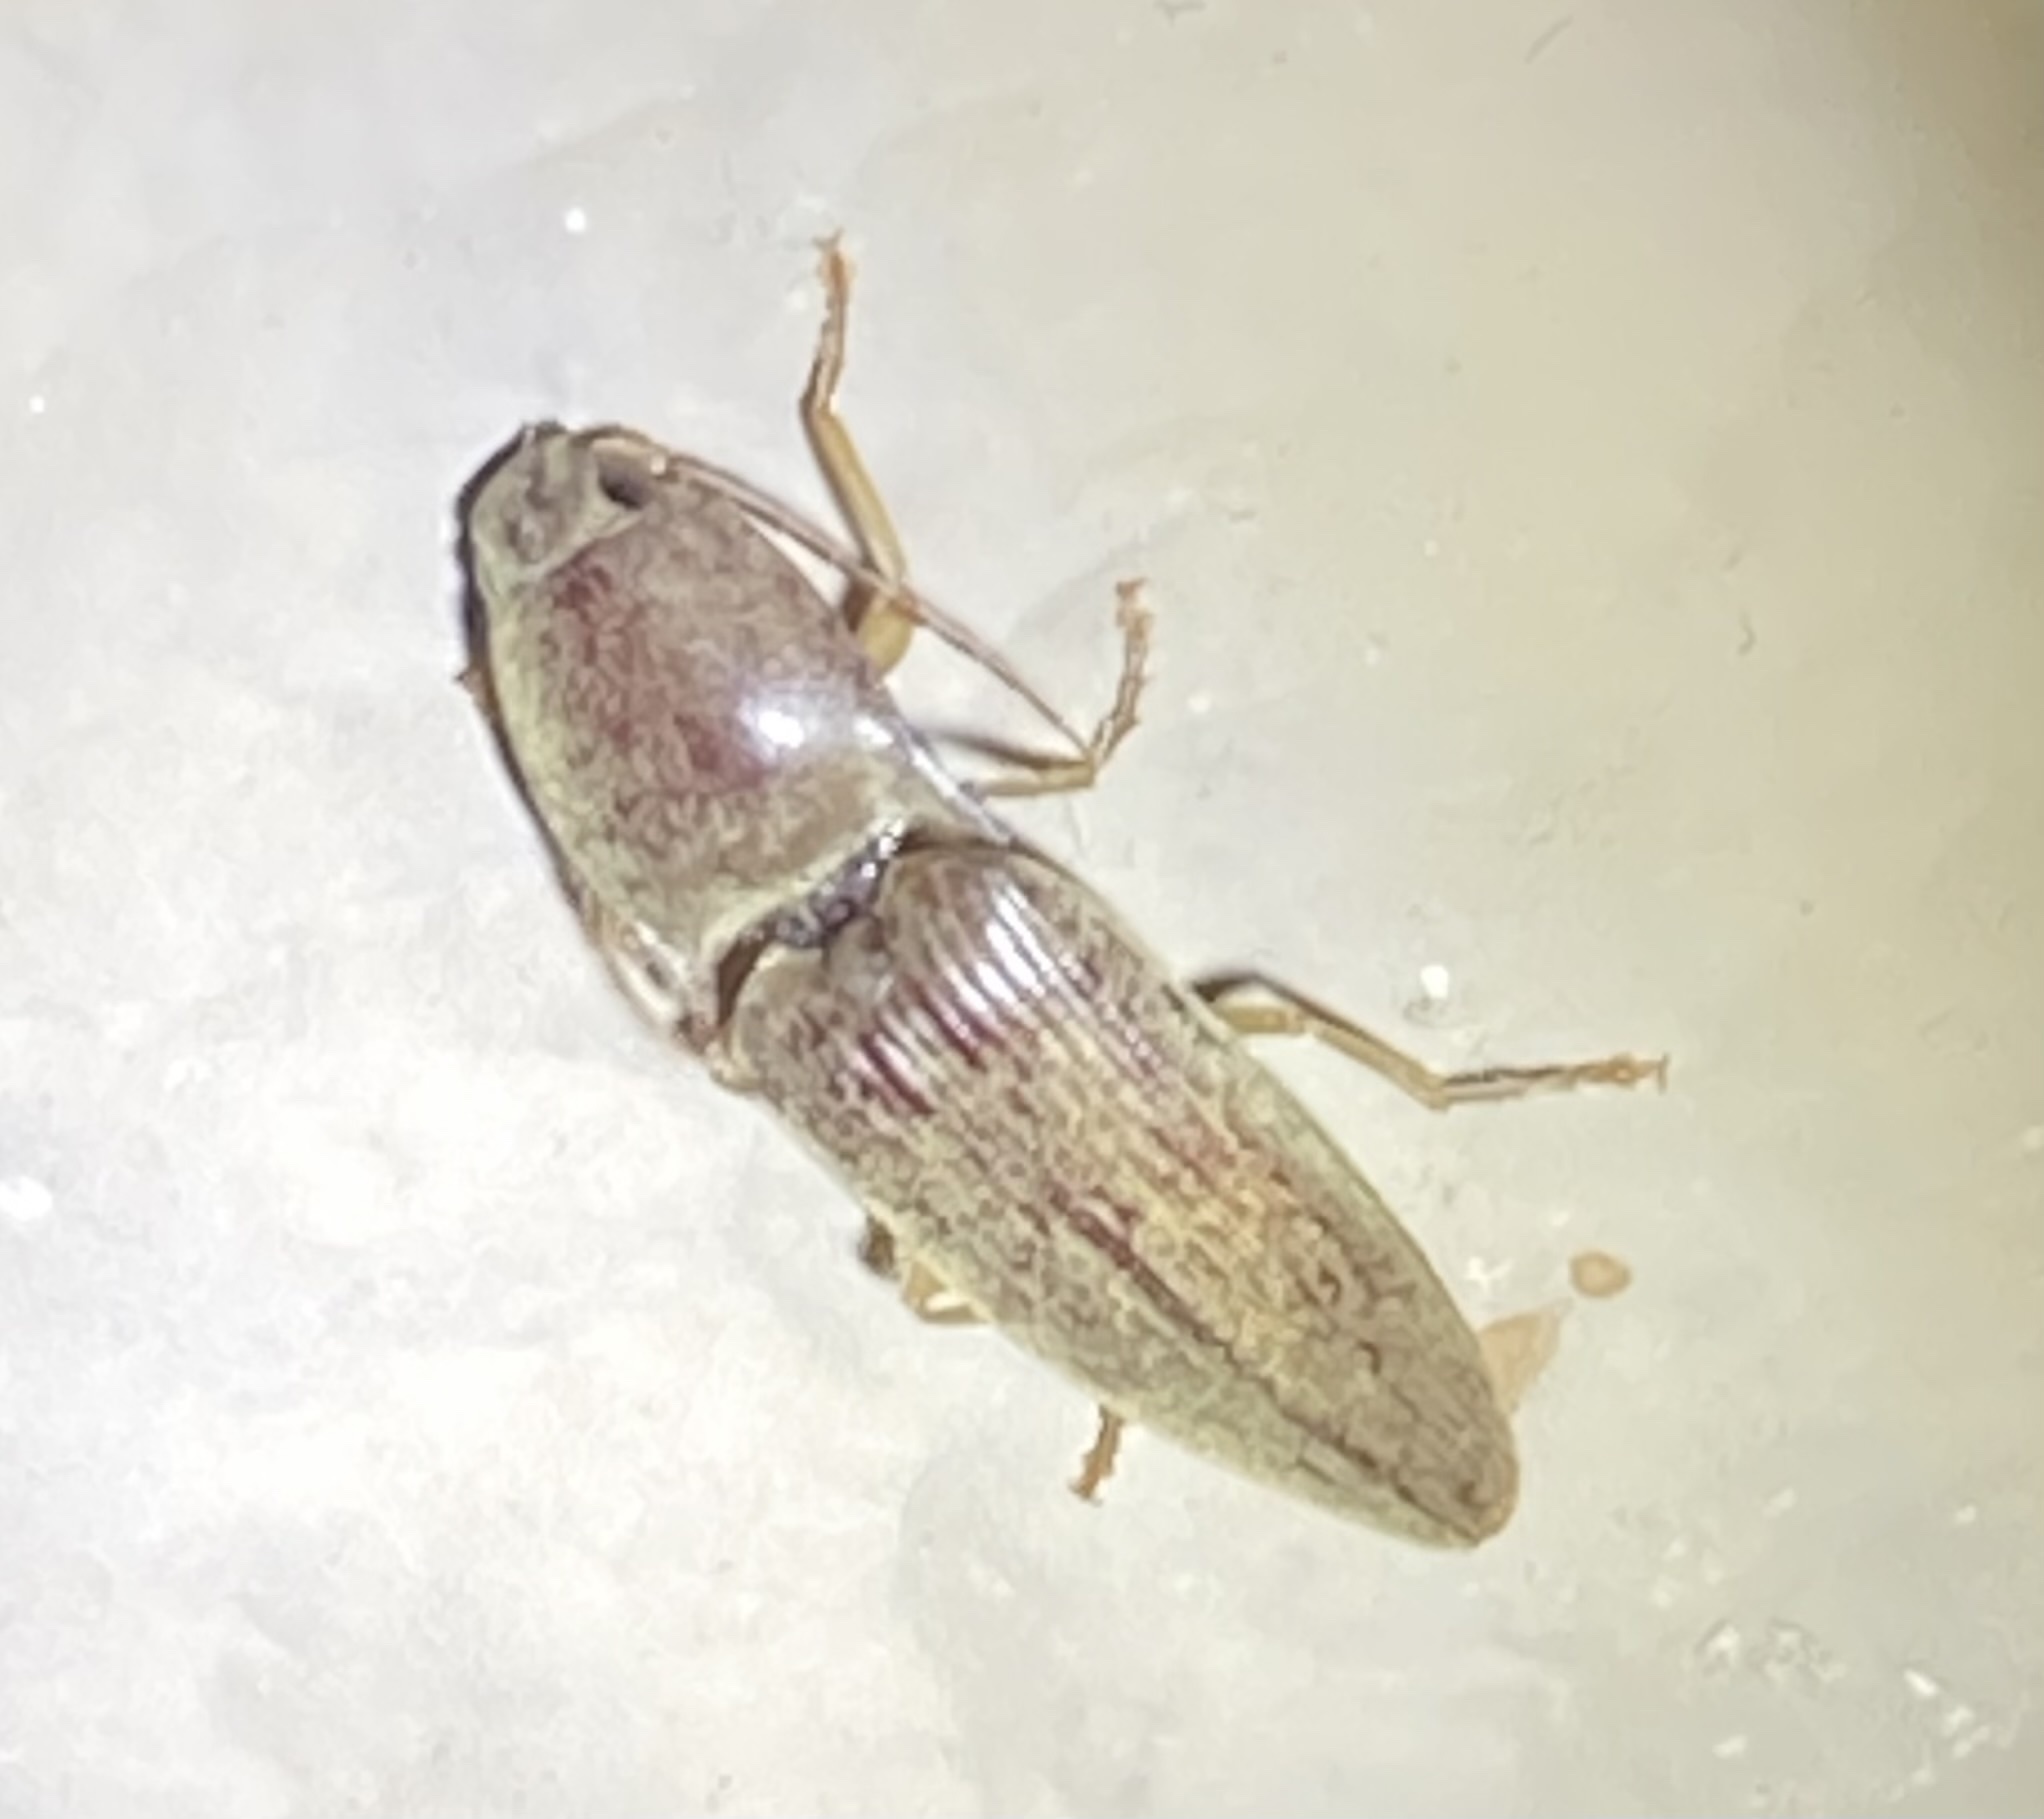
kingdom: Animalia
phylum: Arthropoda
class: Insecta
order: Coleoptera
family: Elateridae
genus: Monocrepidius
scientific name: Monocrepidius lividus
